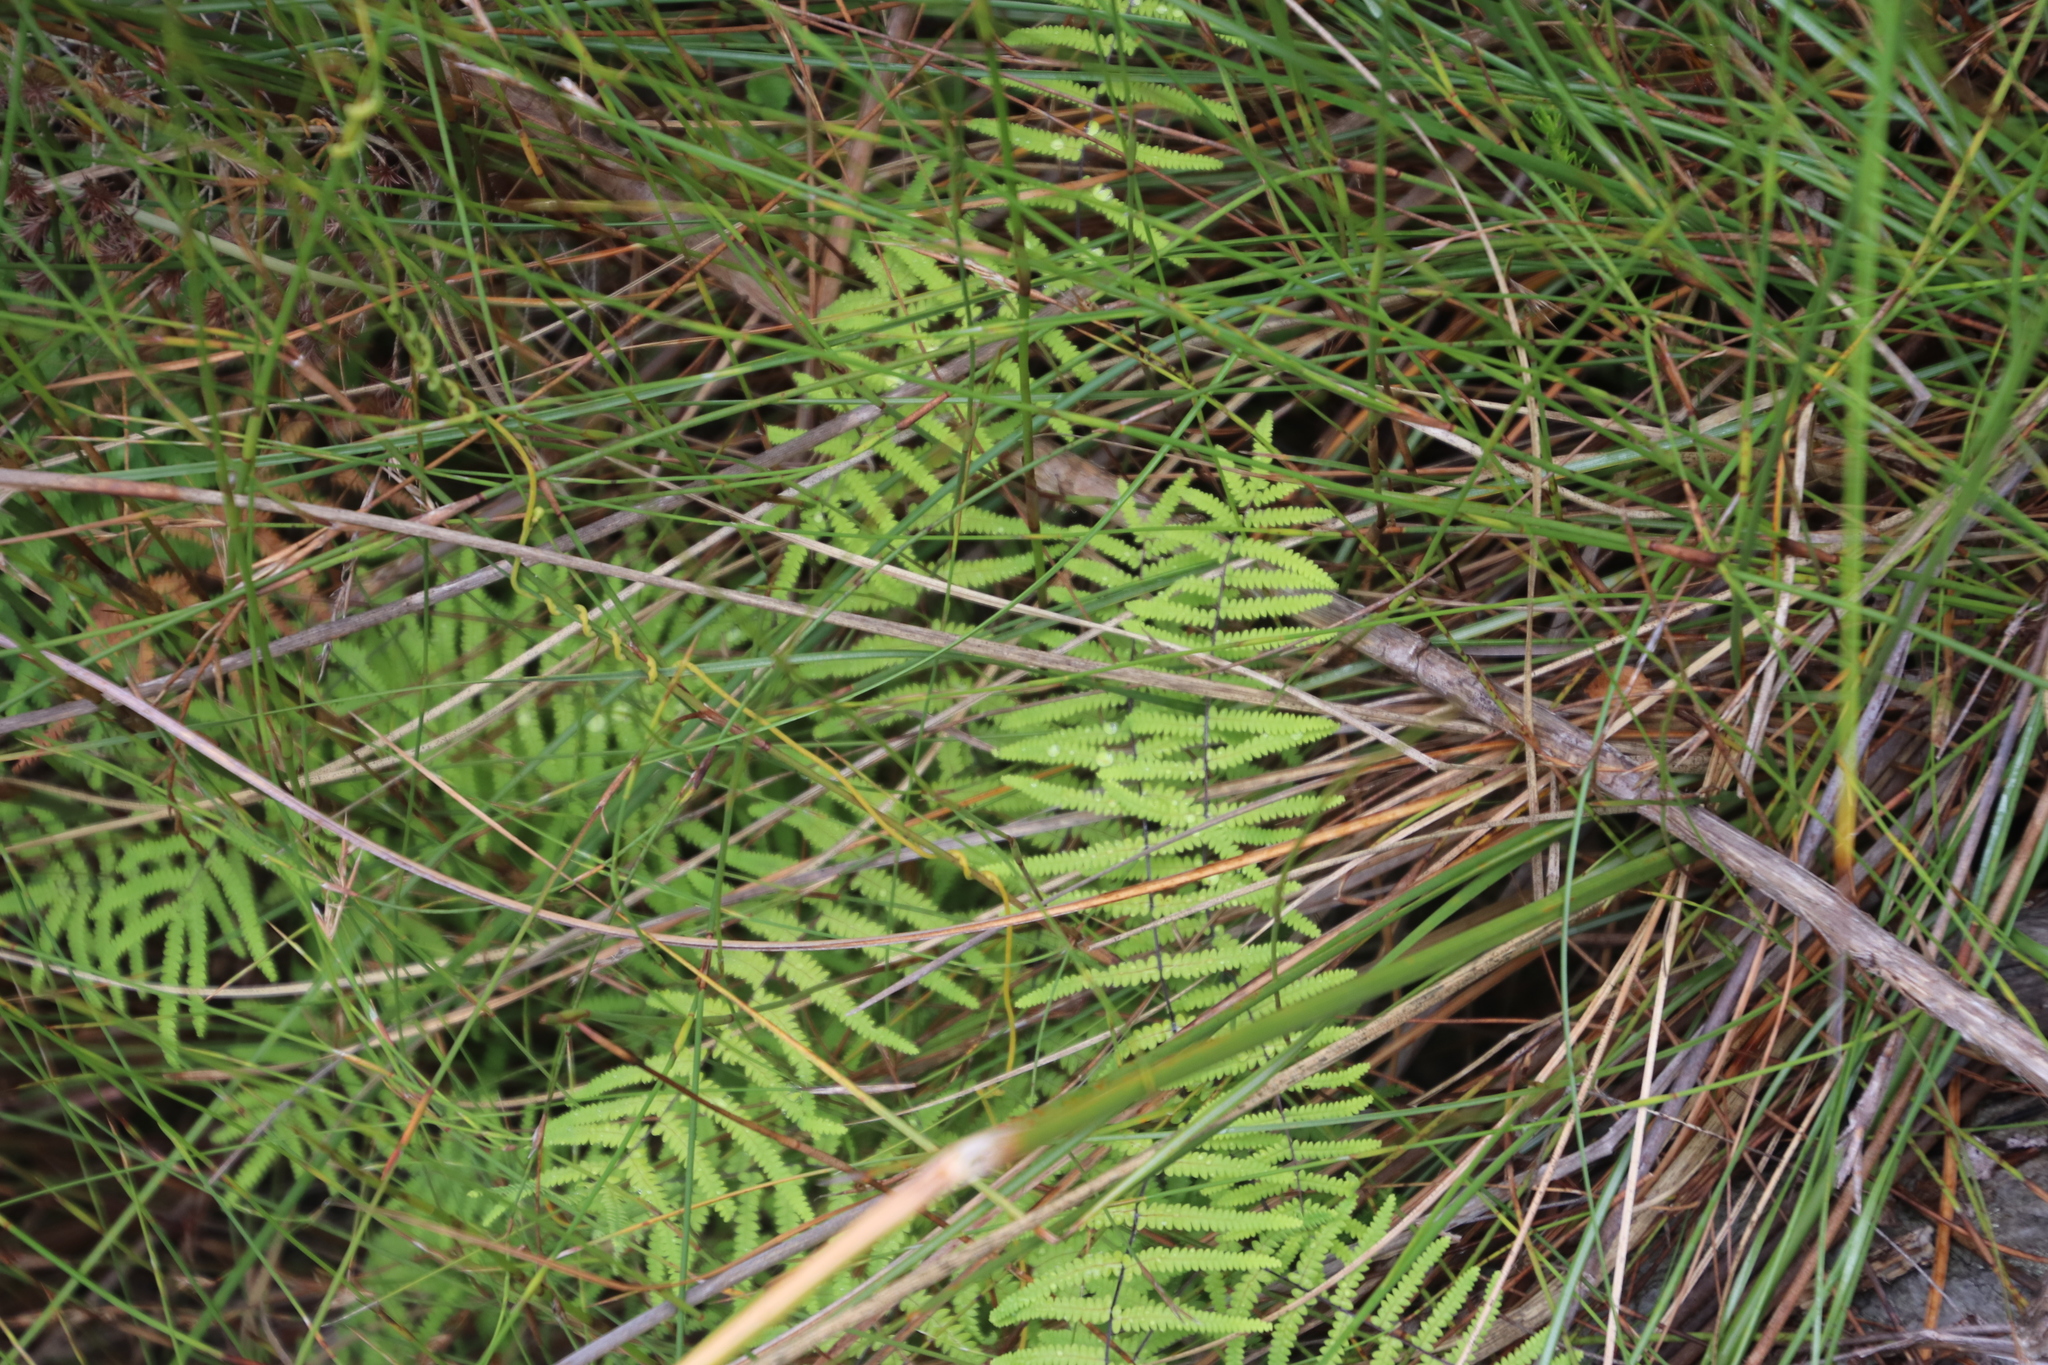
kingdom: Plantae
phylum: Tracheophyta
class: Polypodiopsida
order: Gleicheniales
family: Gleicheniaceae
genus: Gleichenia
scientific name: Gleichenia polypodioides
